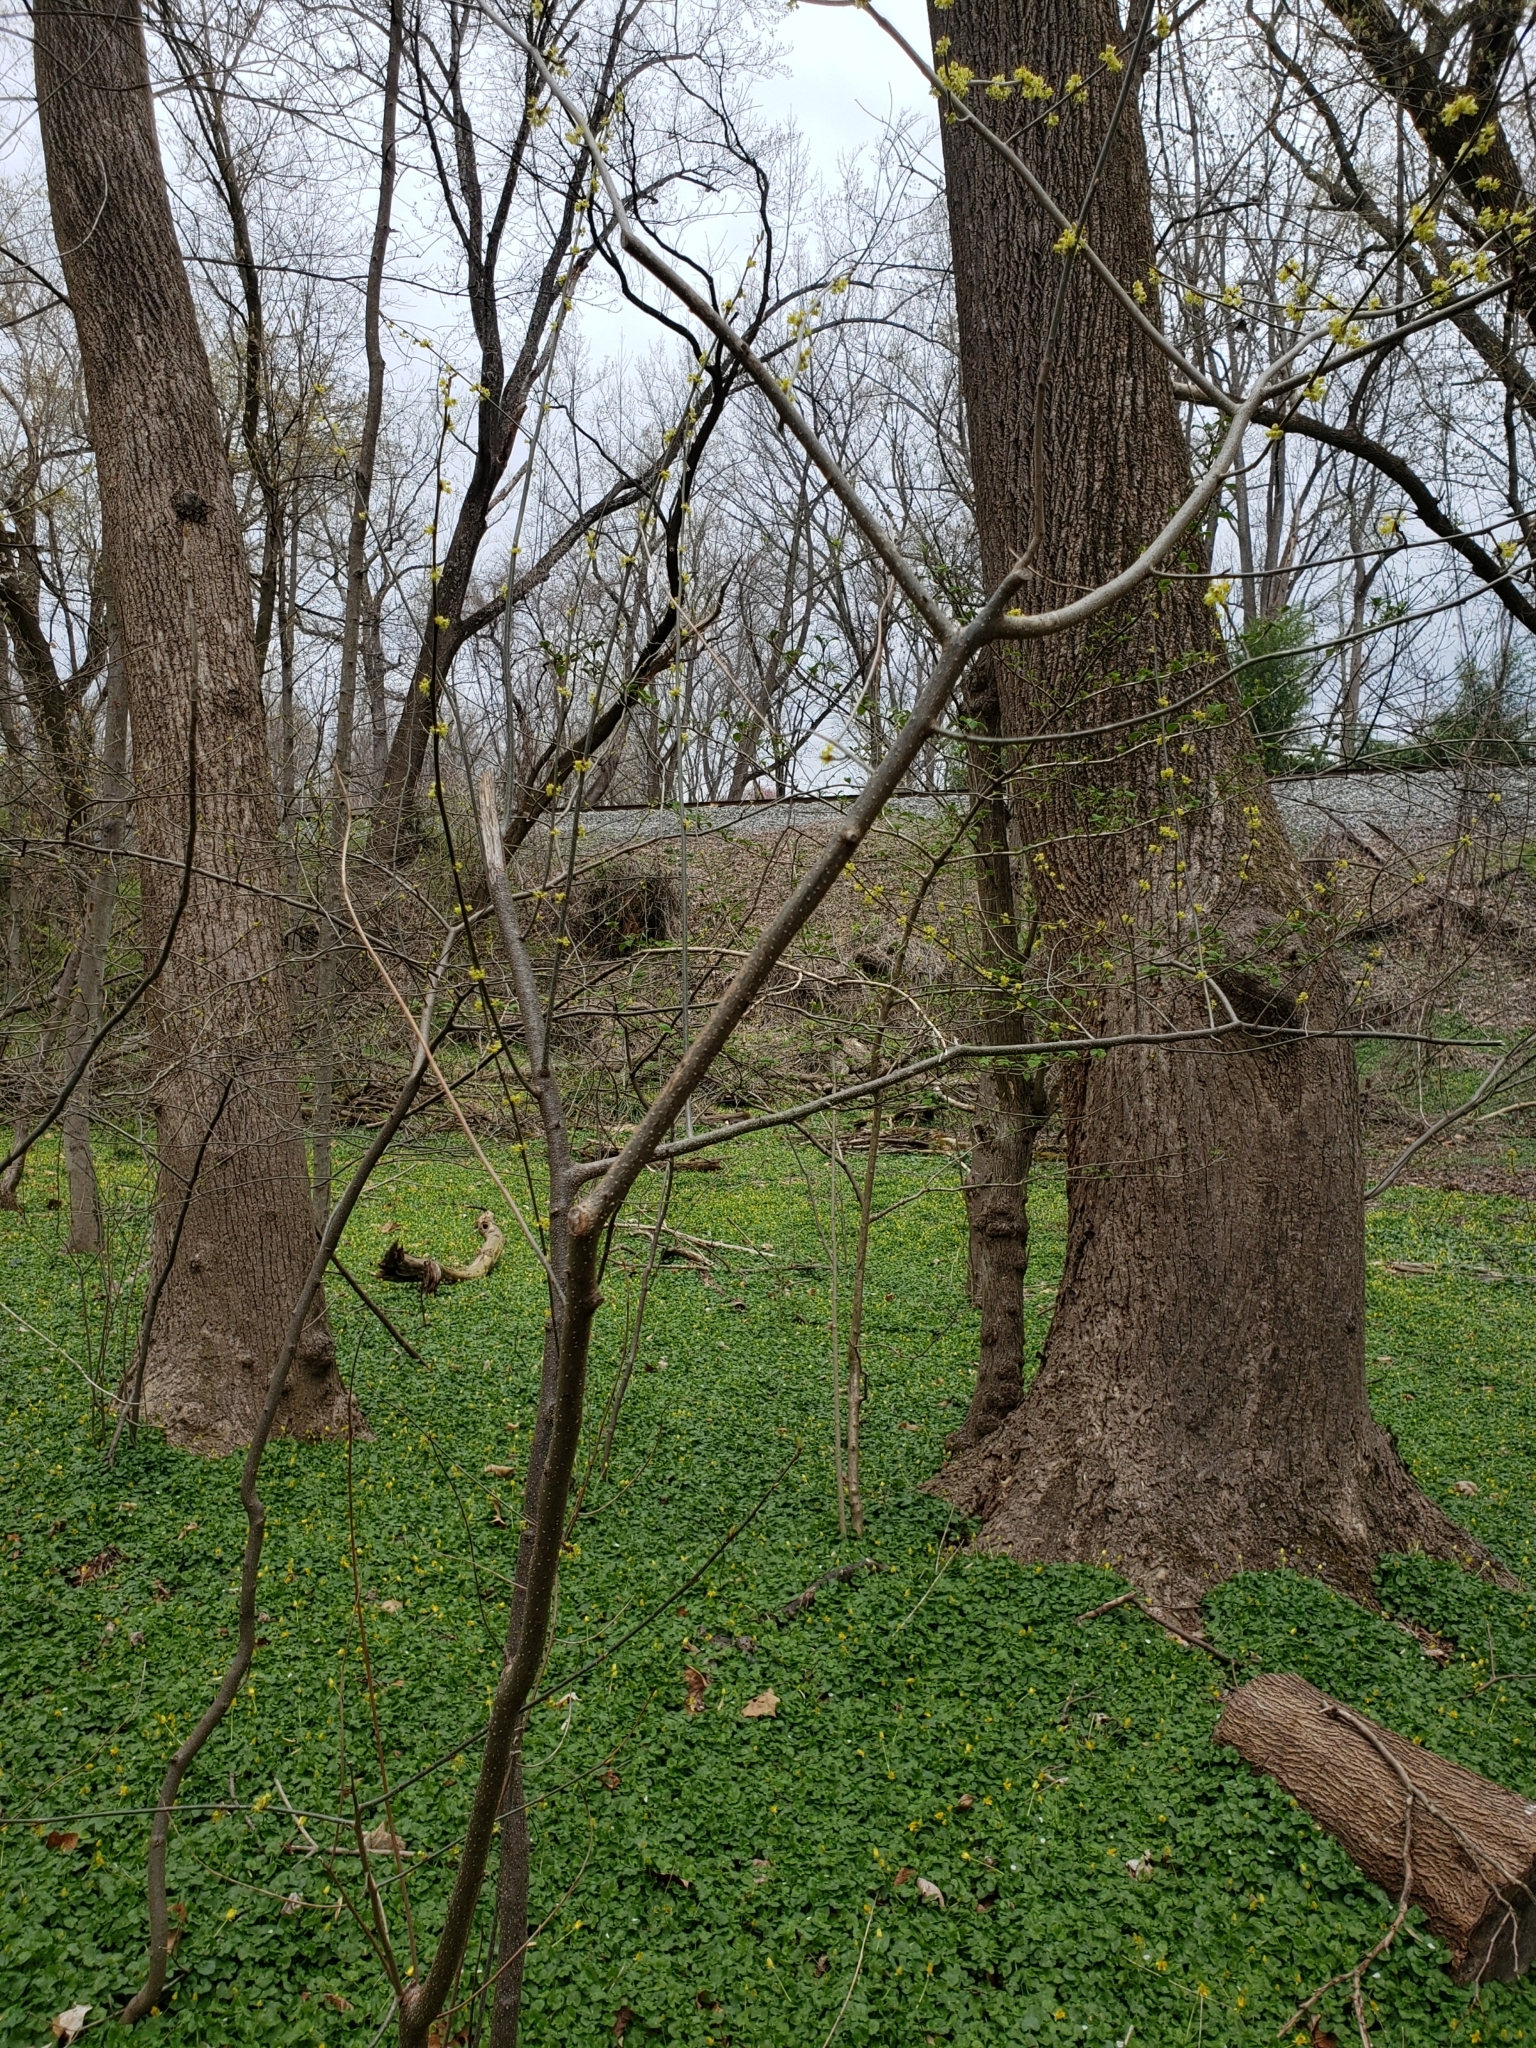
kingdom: Plantae
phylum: Tracheophyta
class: Magnoliopsida
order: Laurales
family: Lauraceae
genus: Lindera
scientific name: Lindera benzoin
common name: Spicebush
